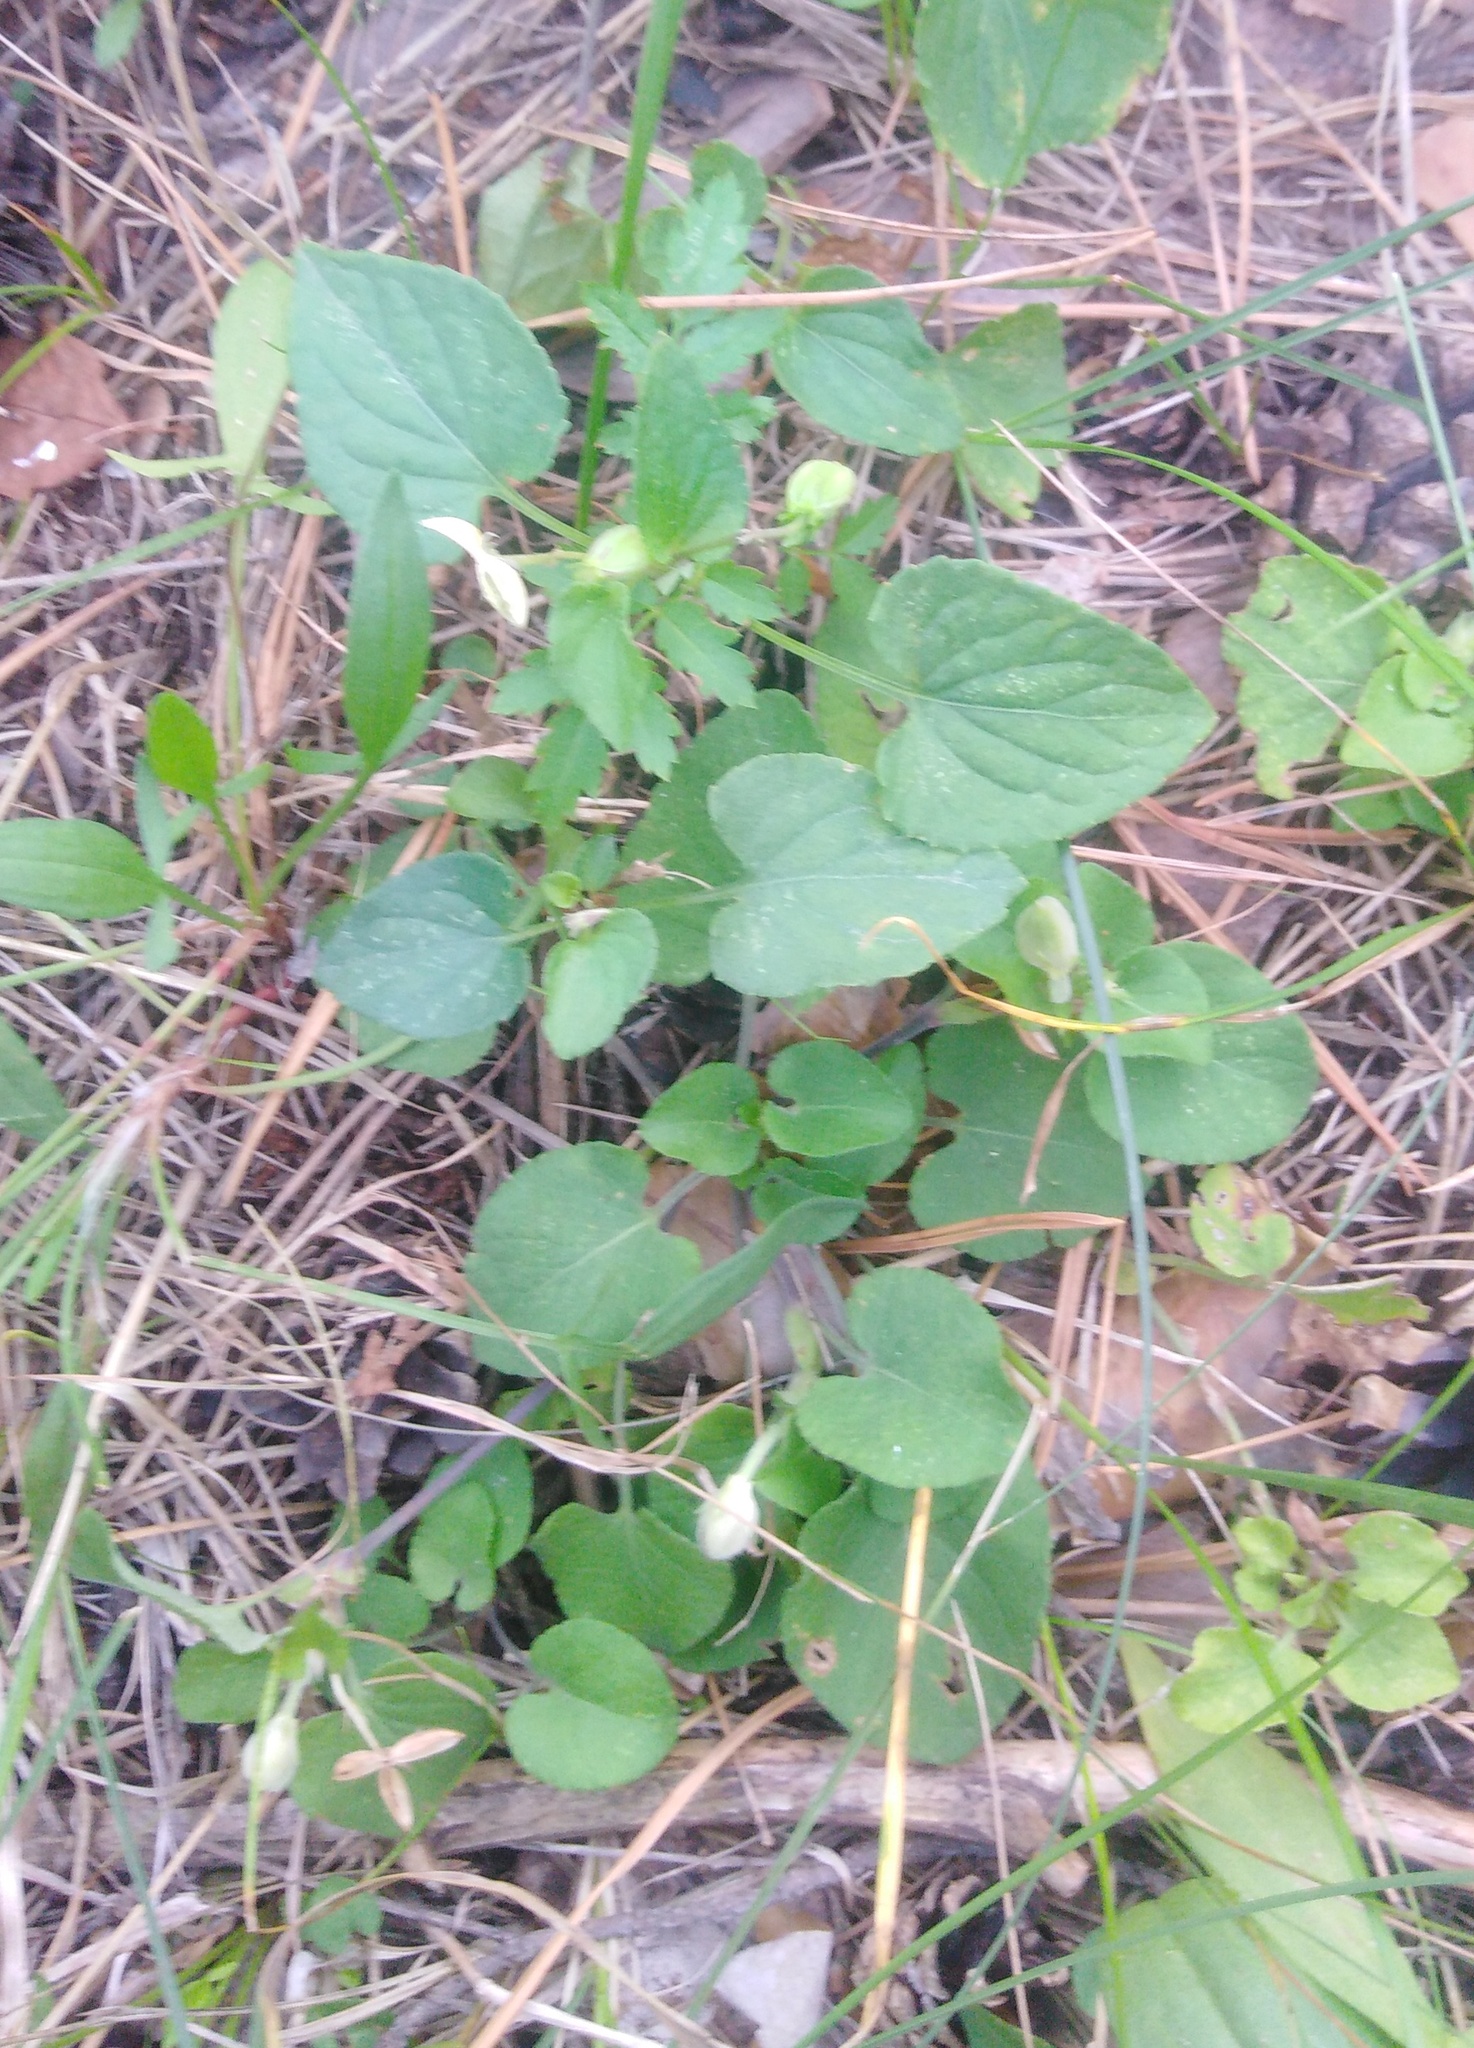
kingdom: Plantae
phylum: Tracheophyta
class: Magnoliopsida
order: Malpighiales
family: Violaceae
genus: Viola
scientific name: Viola rupestris
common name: Teesdale violet
